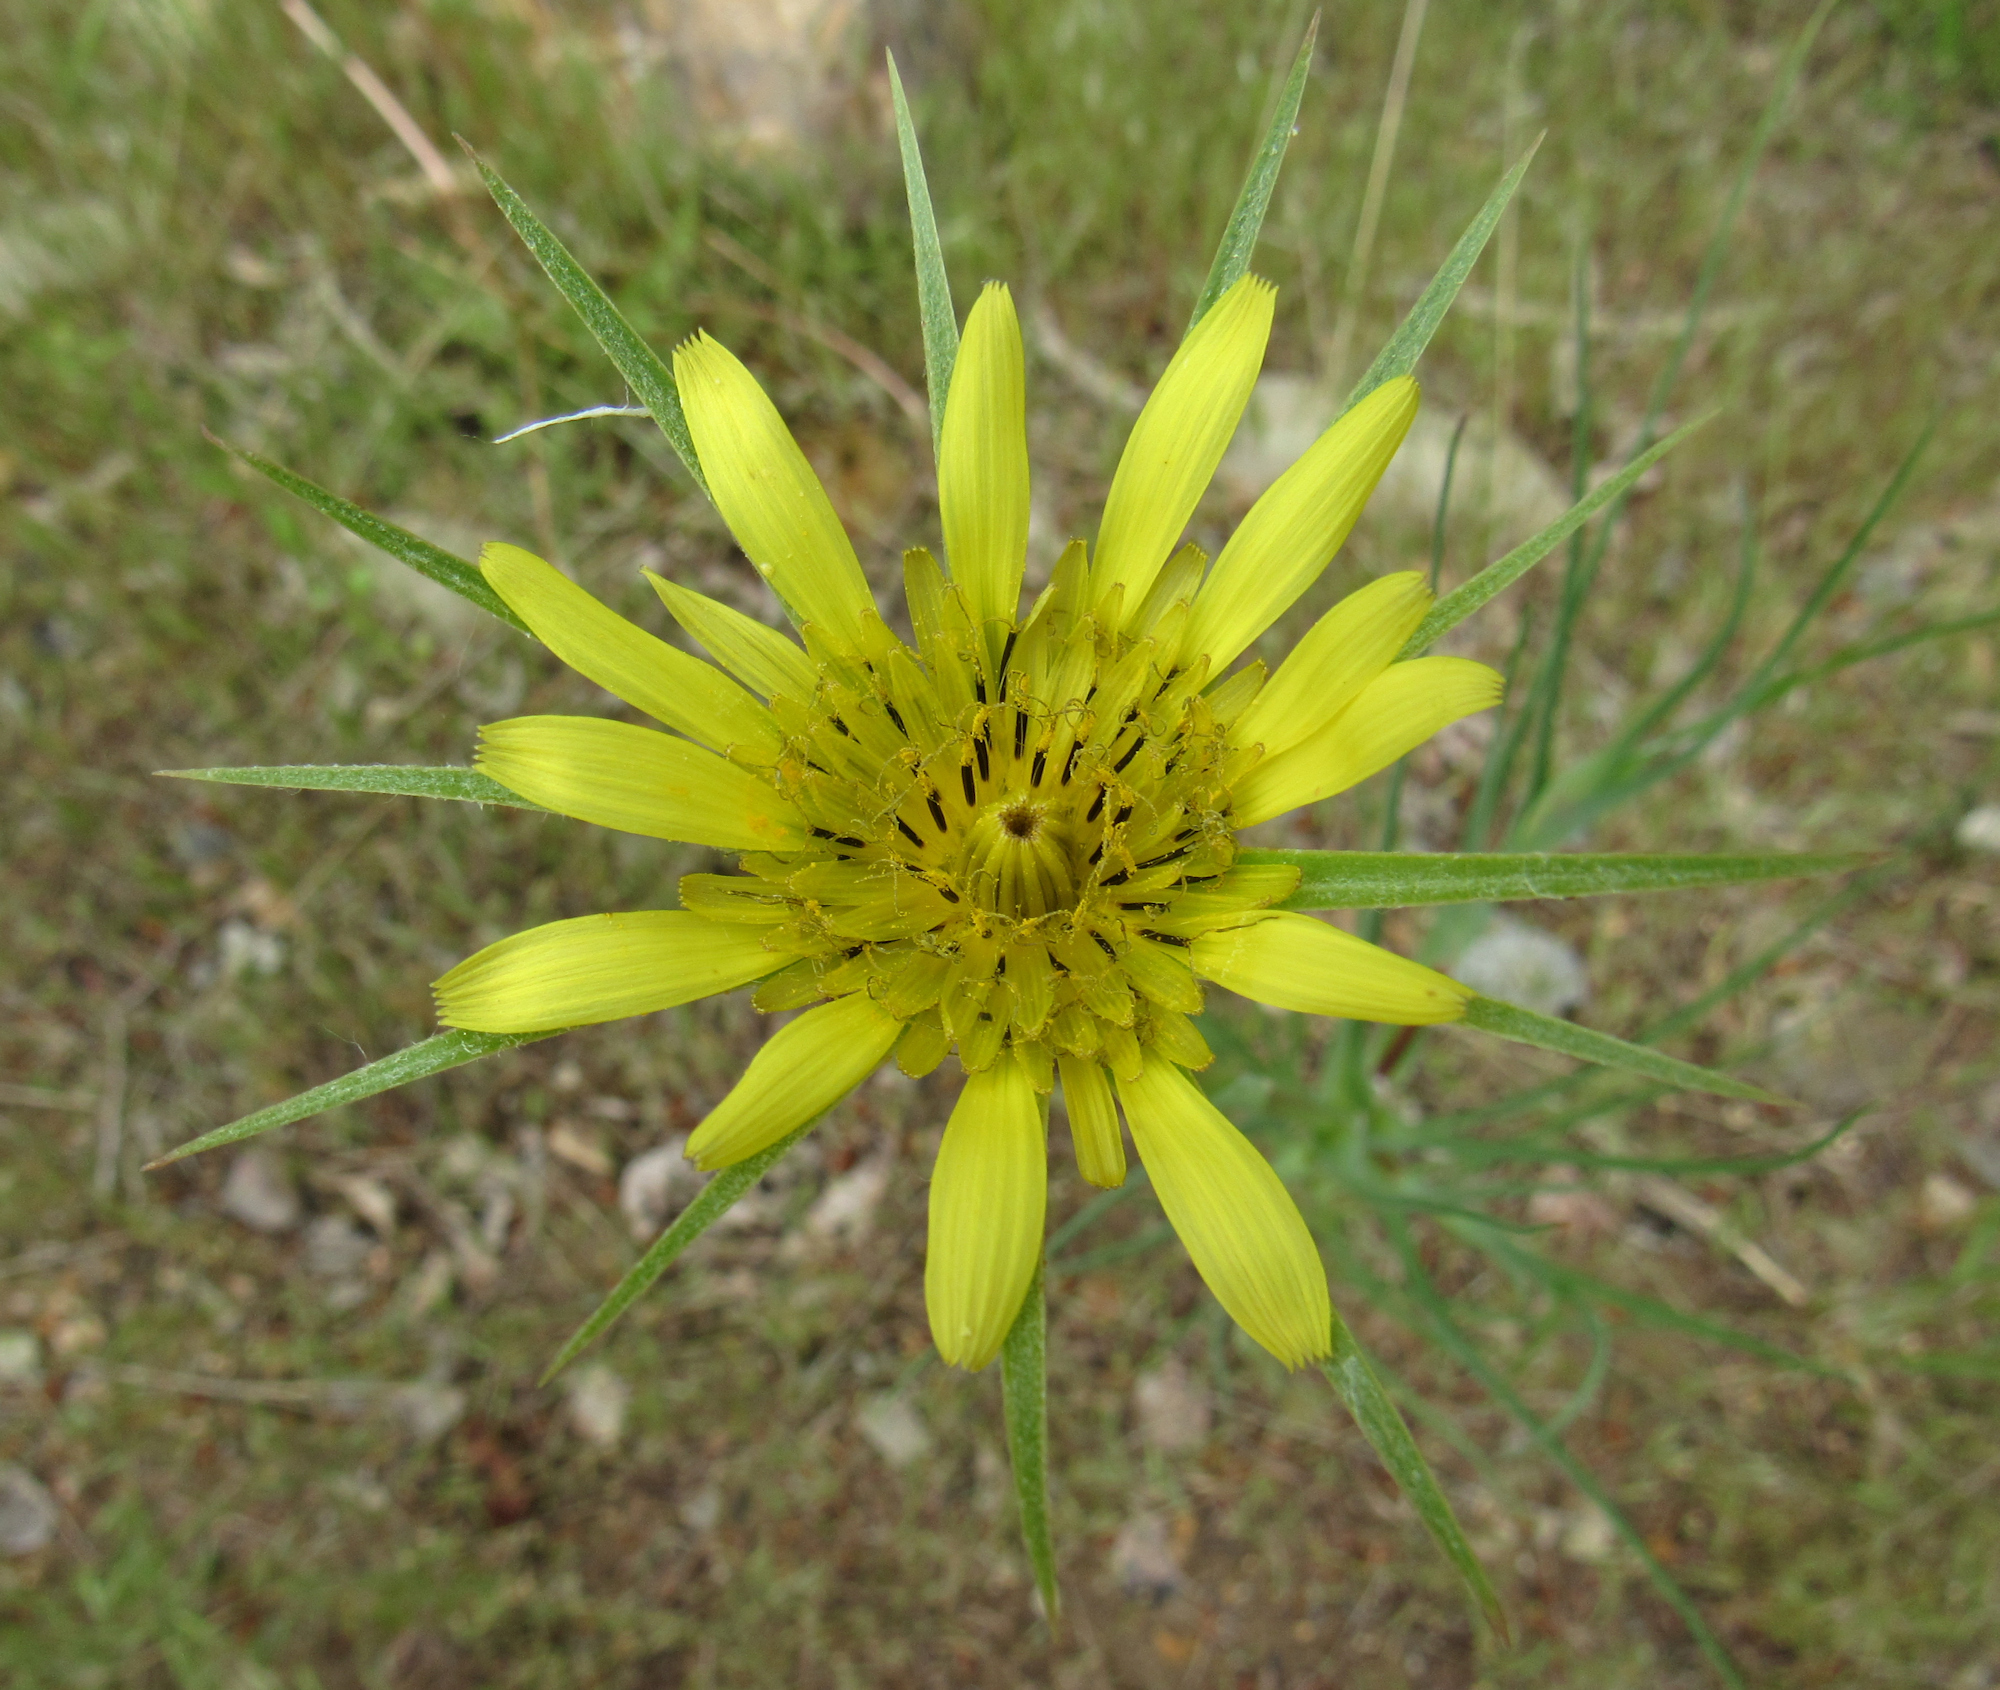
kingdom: Plantae
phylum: Tracheophyta
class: Magnoliopsida
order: Asterales
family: Asteraceae
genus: Tragopogon
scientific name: Tragopogon dubius
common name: Yellow salsify
